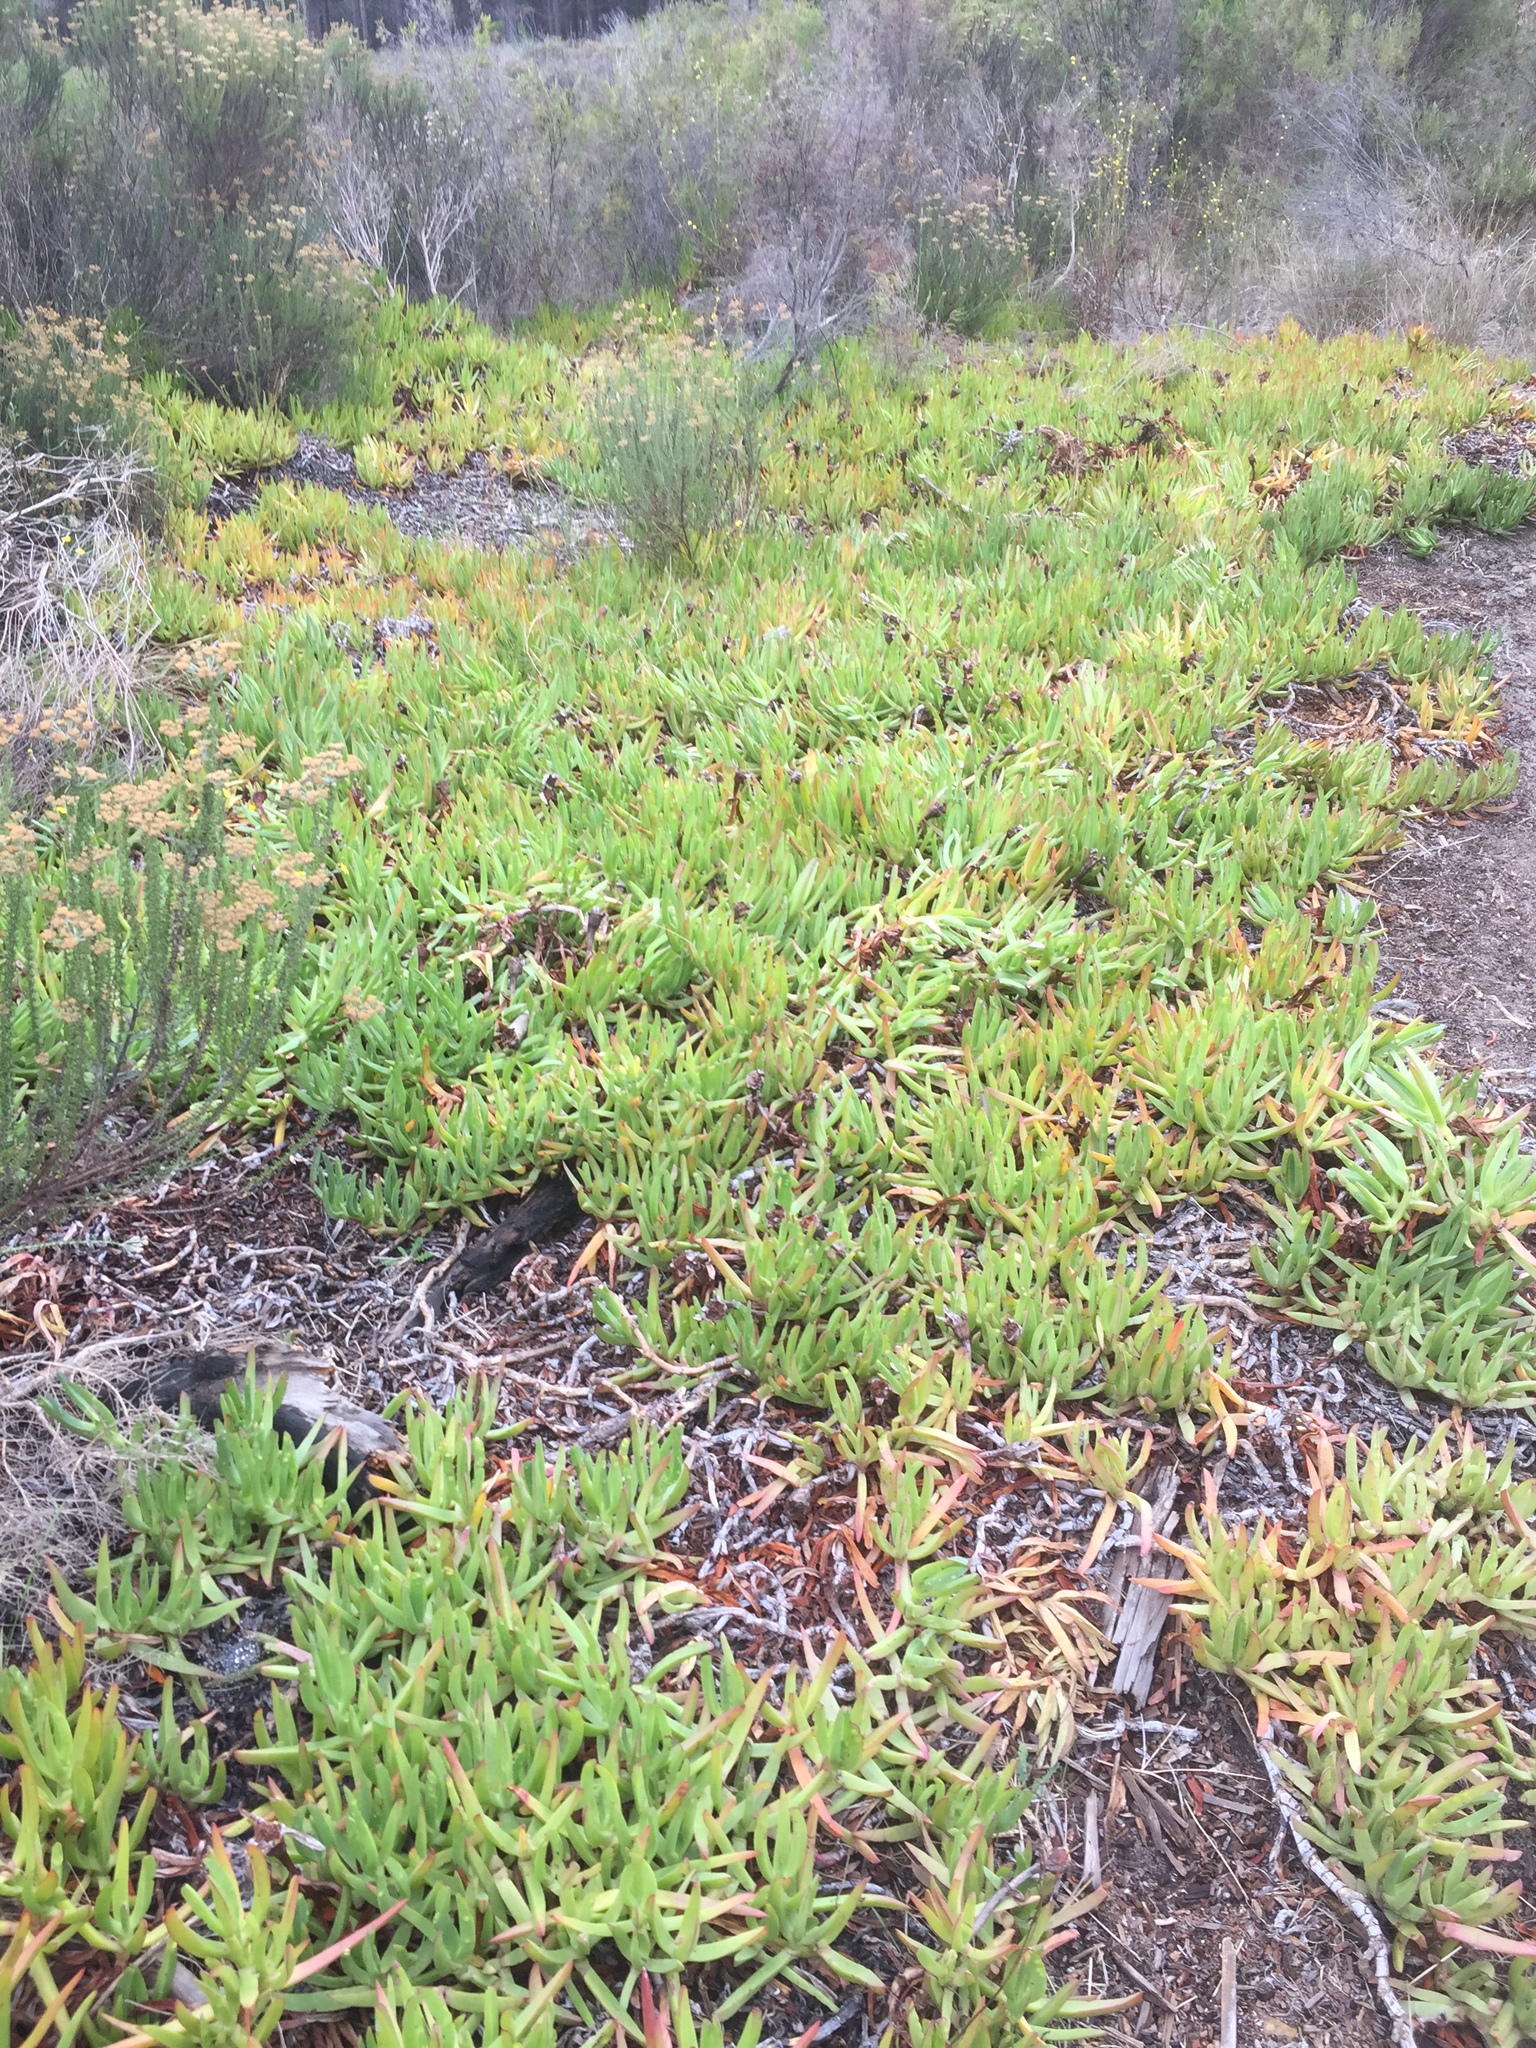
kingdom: Plantae
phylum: Tracheophyta
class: Magnoliopsida
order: Caryophyllales
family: Aizoaceae
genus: Carpobrotus
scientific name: Carpobrotus edulis
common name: Hottentot-fig
